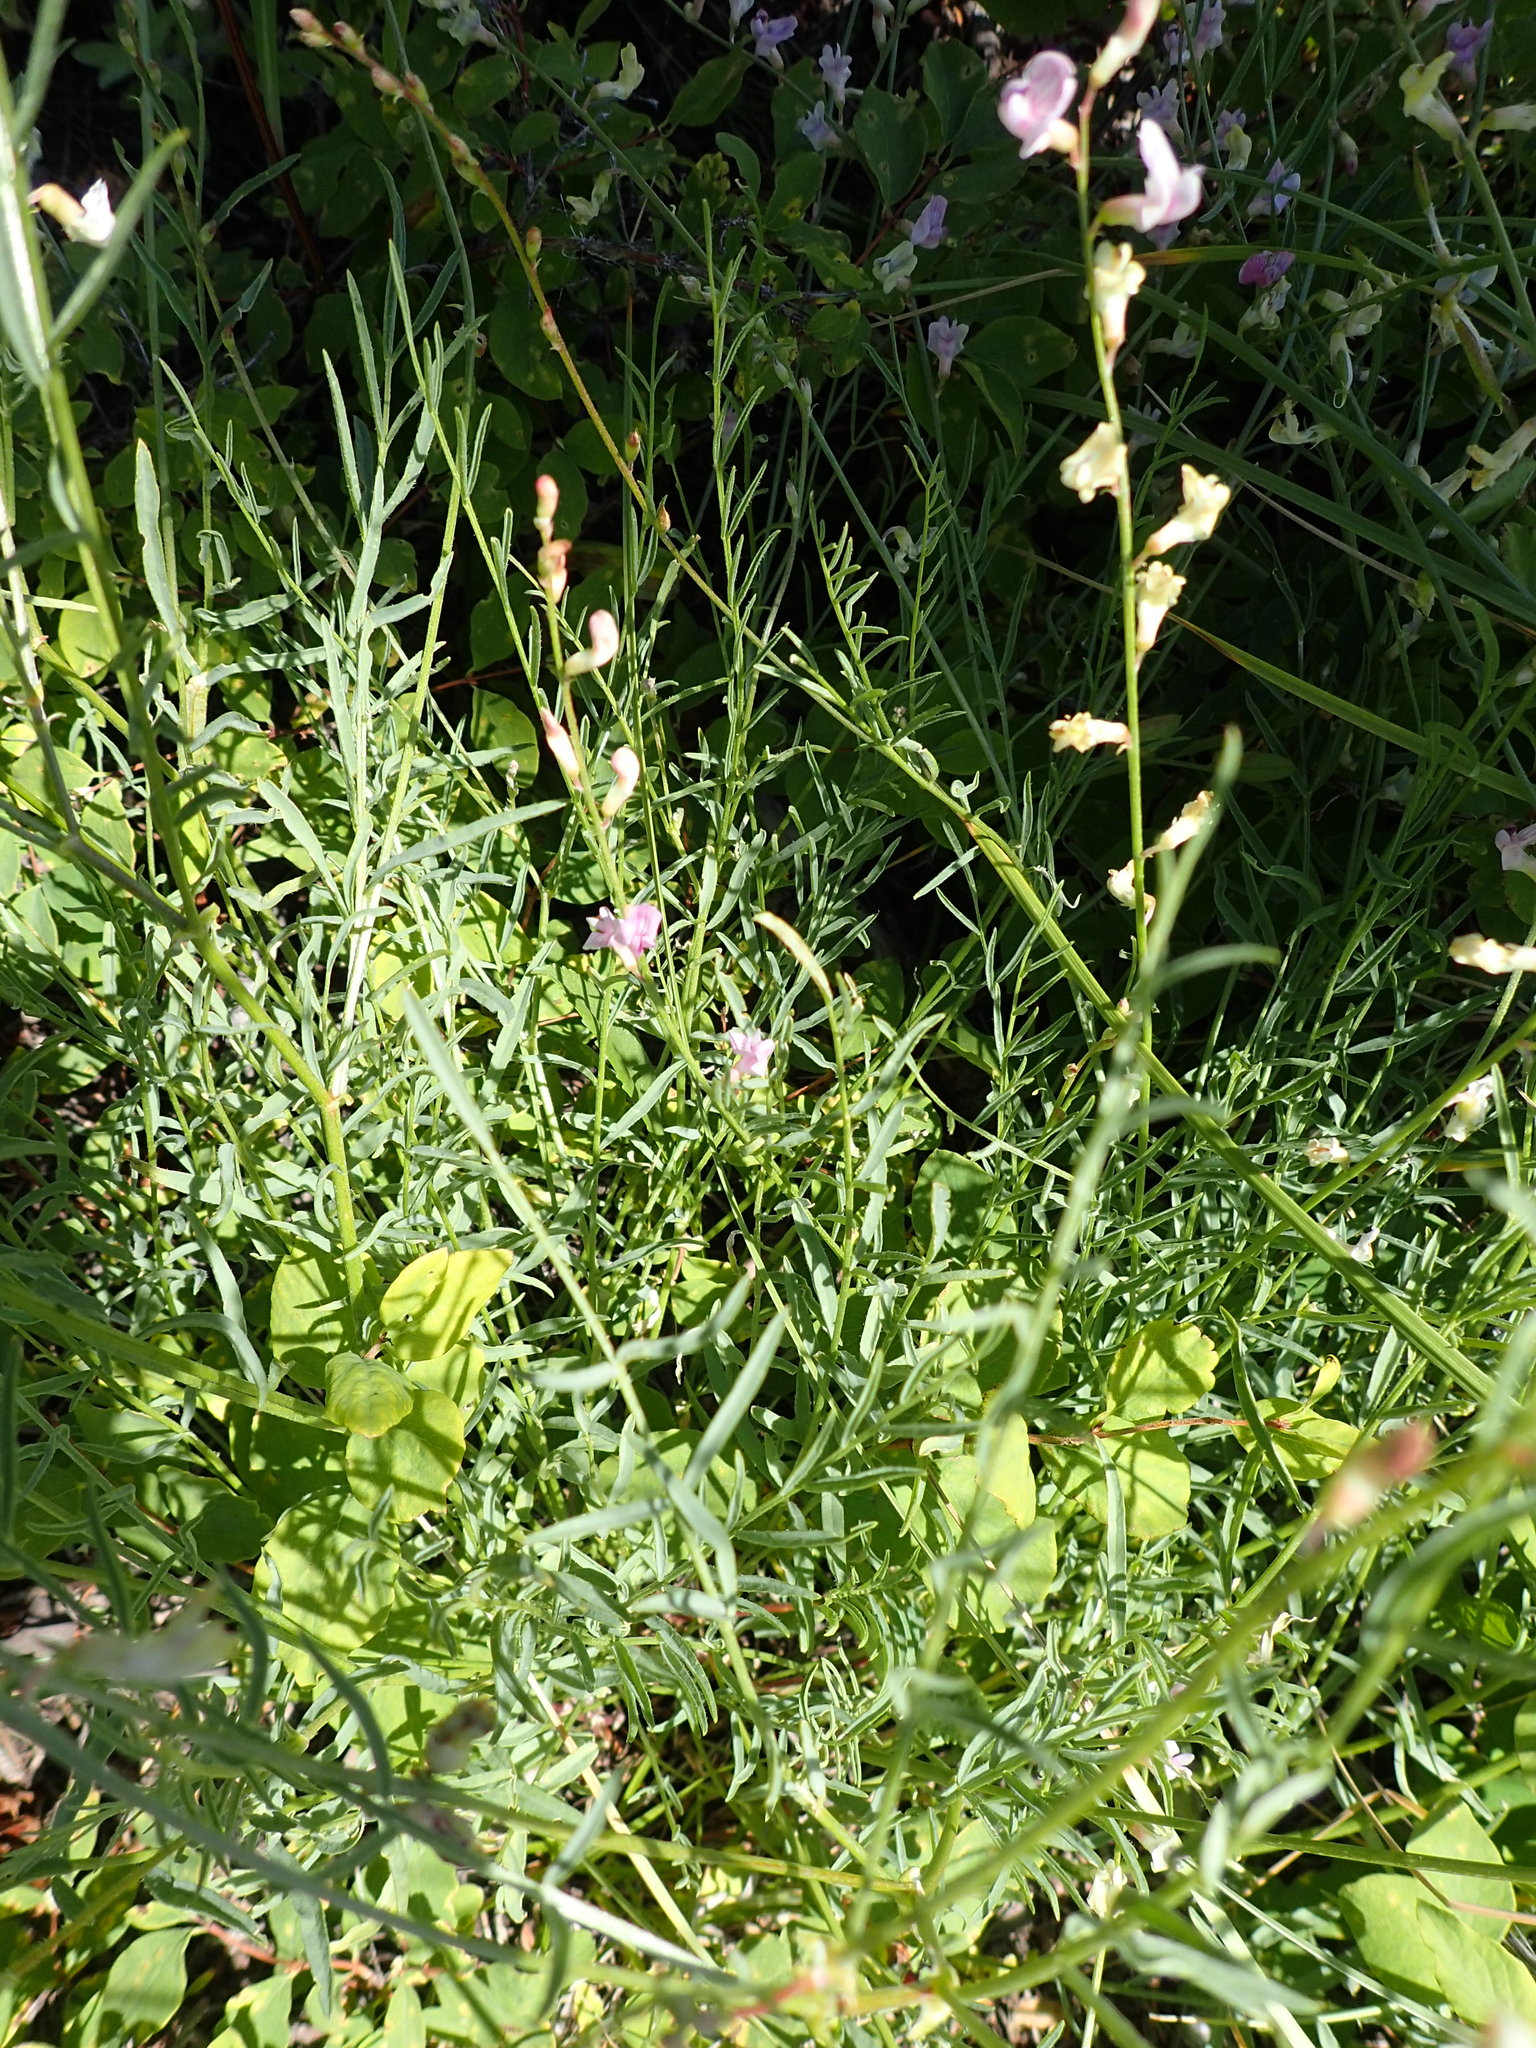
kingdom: Plantae
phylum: Tracheophyta
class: Magnoliopsida
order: Fabales
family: Fabaceae
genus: Astragalus
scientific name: Astragalus miser
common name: Timber milkvetch
